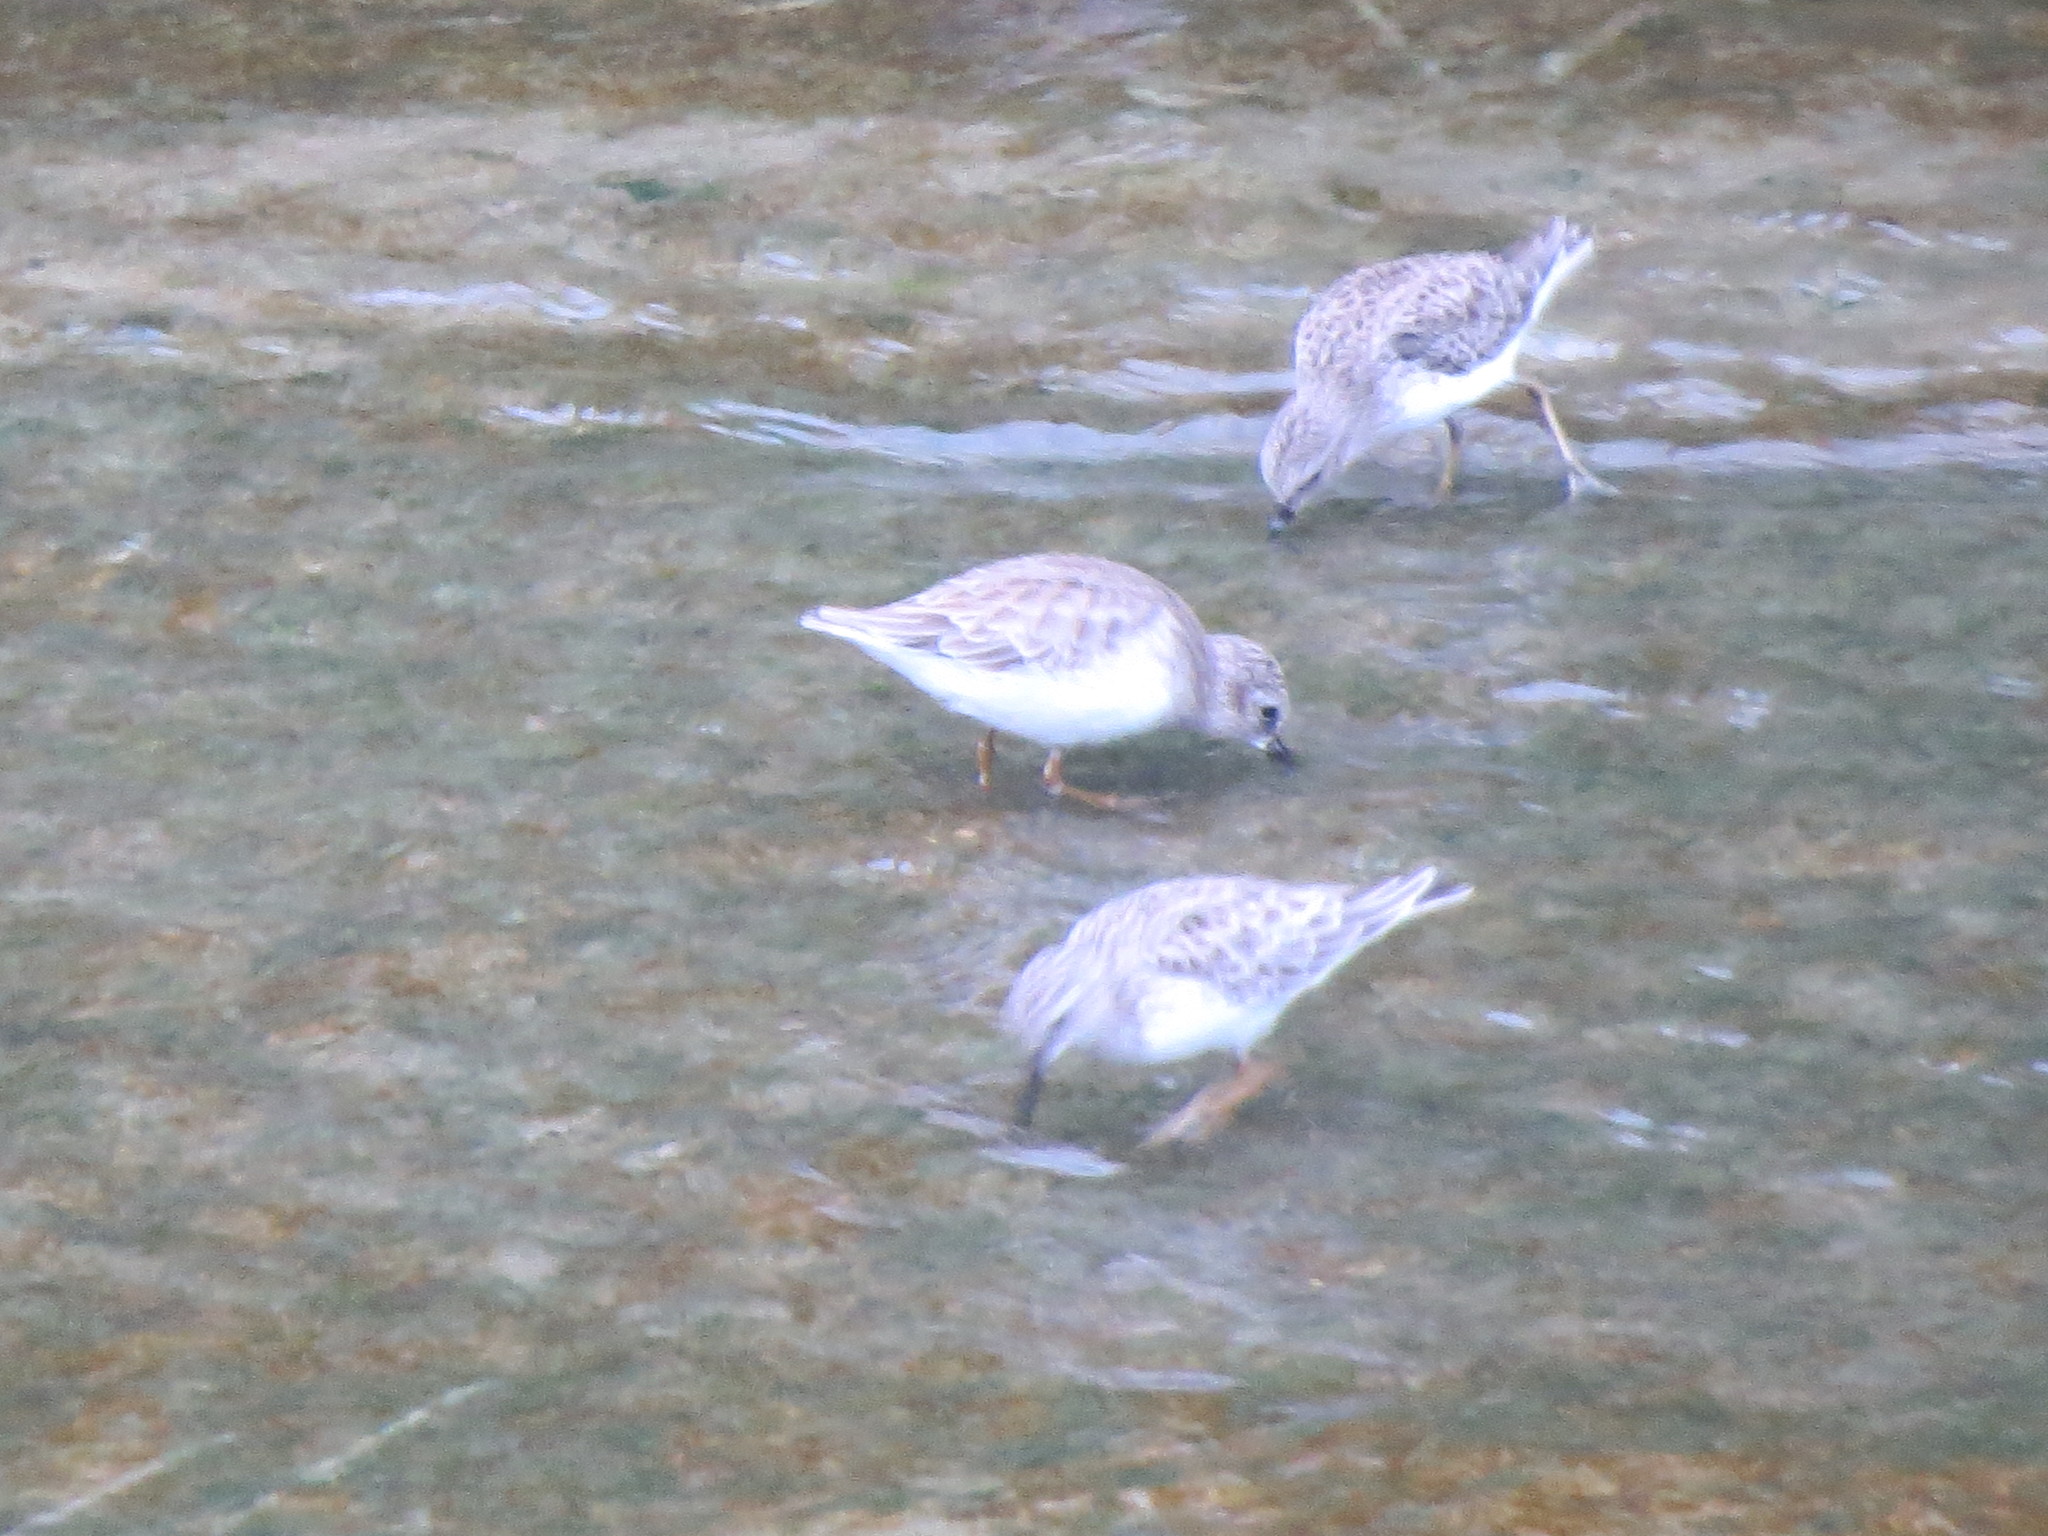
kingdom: Animalia
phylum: Chordata
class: Aves
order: Charadriiformes
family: Scolopacidae
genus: Calidris
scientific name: Calidris minutilla
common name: Least sandpiper
